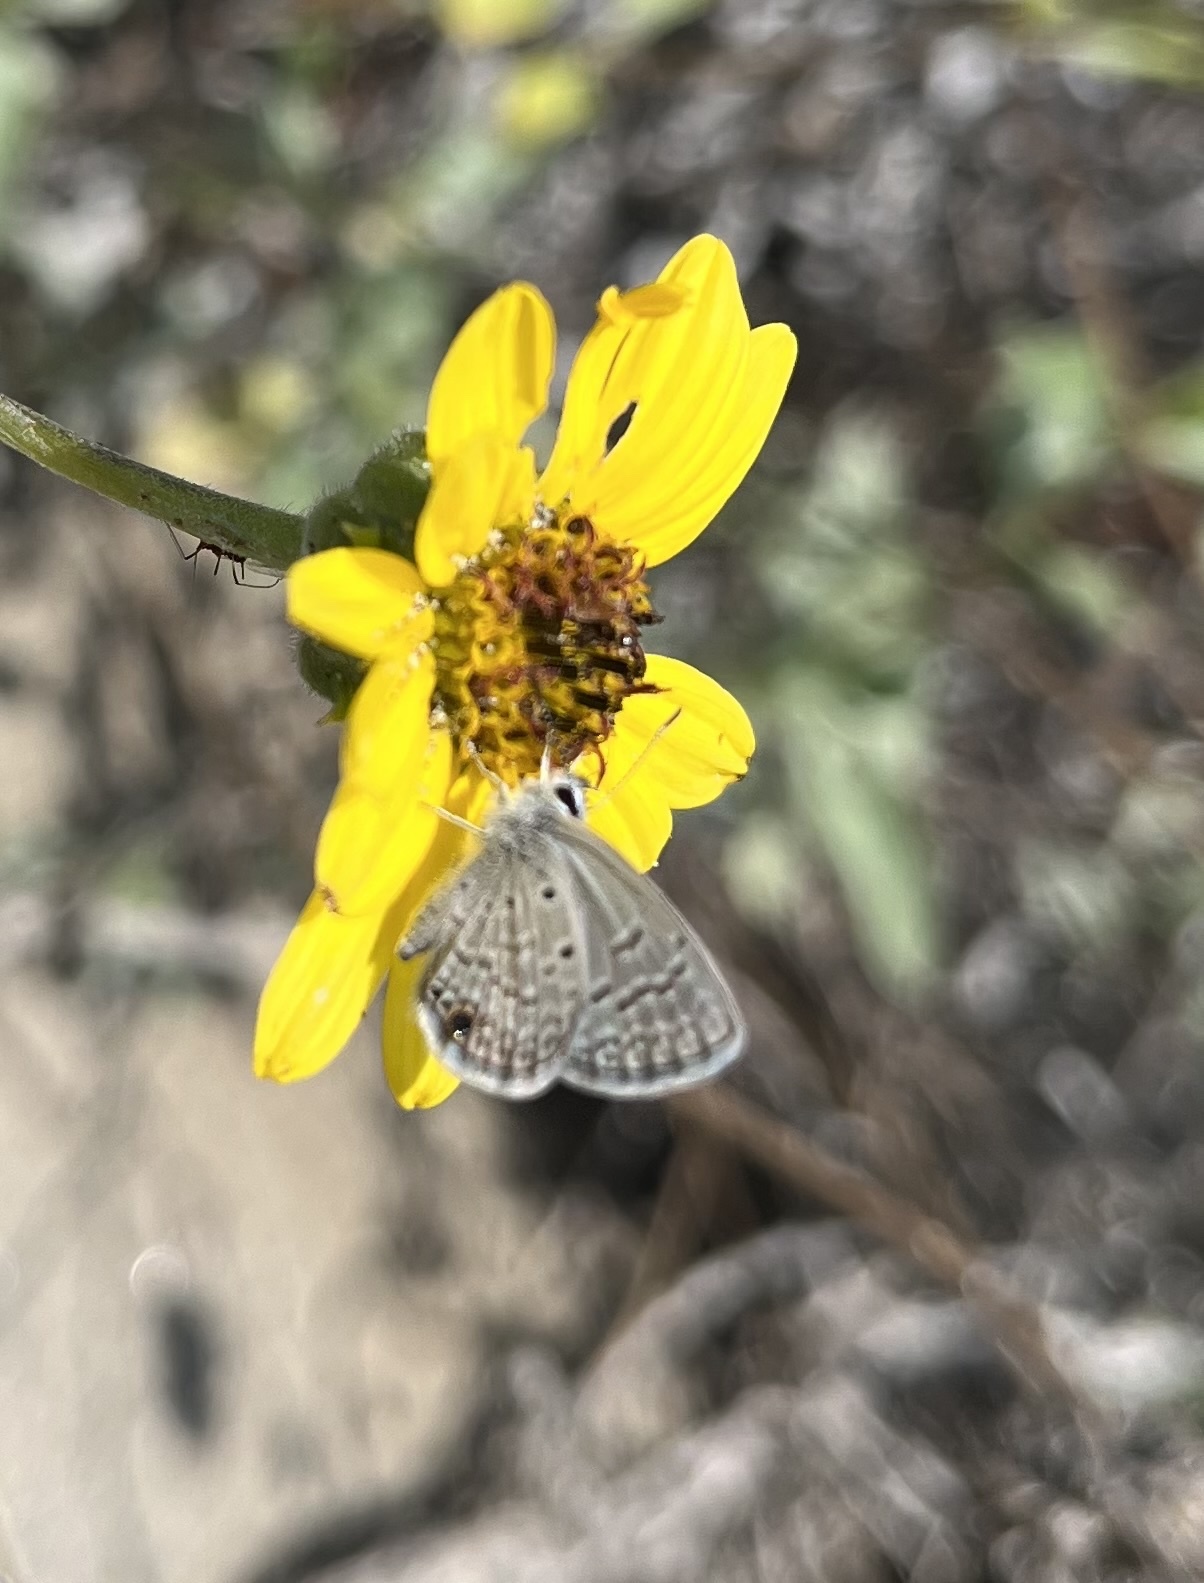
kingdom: Animalia
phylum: Arthropoda
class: Insecta
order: Lepidoptera
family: Lycaenidae
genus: Hemiargus
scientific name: Hemiargus ceraunus
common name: Ceraunus blue
